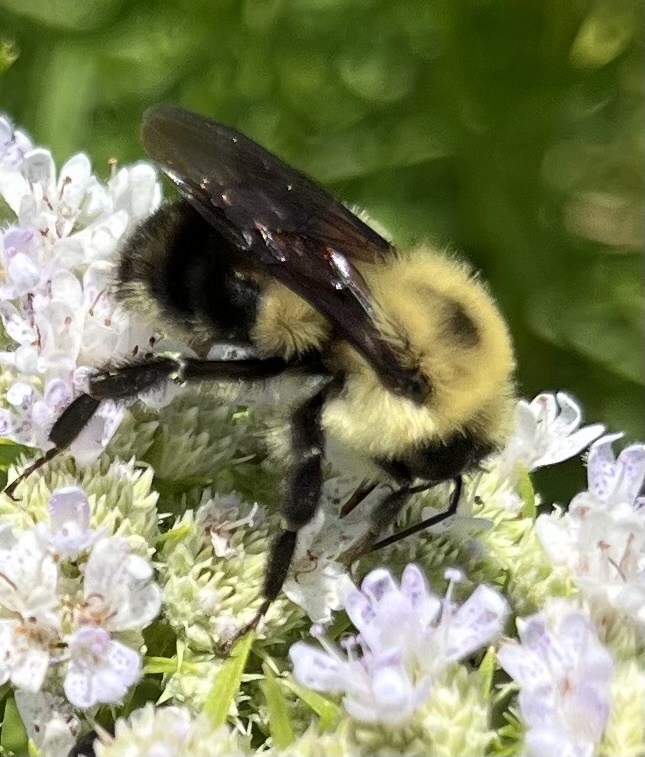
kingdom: Animalia
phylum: Arthropoda
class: Insecta
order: Hymenoptera
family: Apidae
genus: Bombus
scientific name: Bombus bimaculatus
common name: Two-spotted bumble bee
